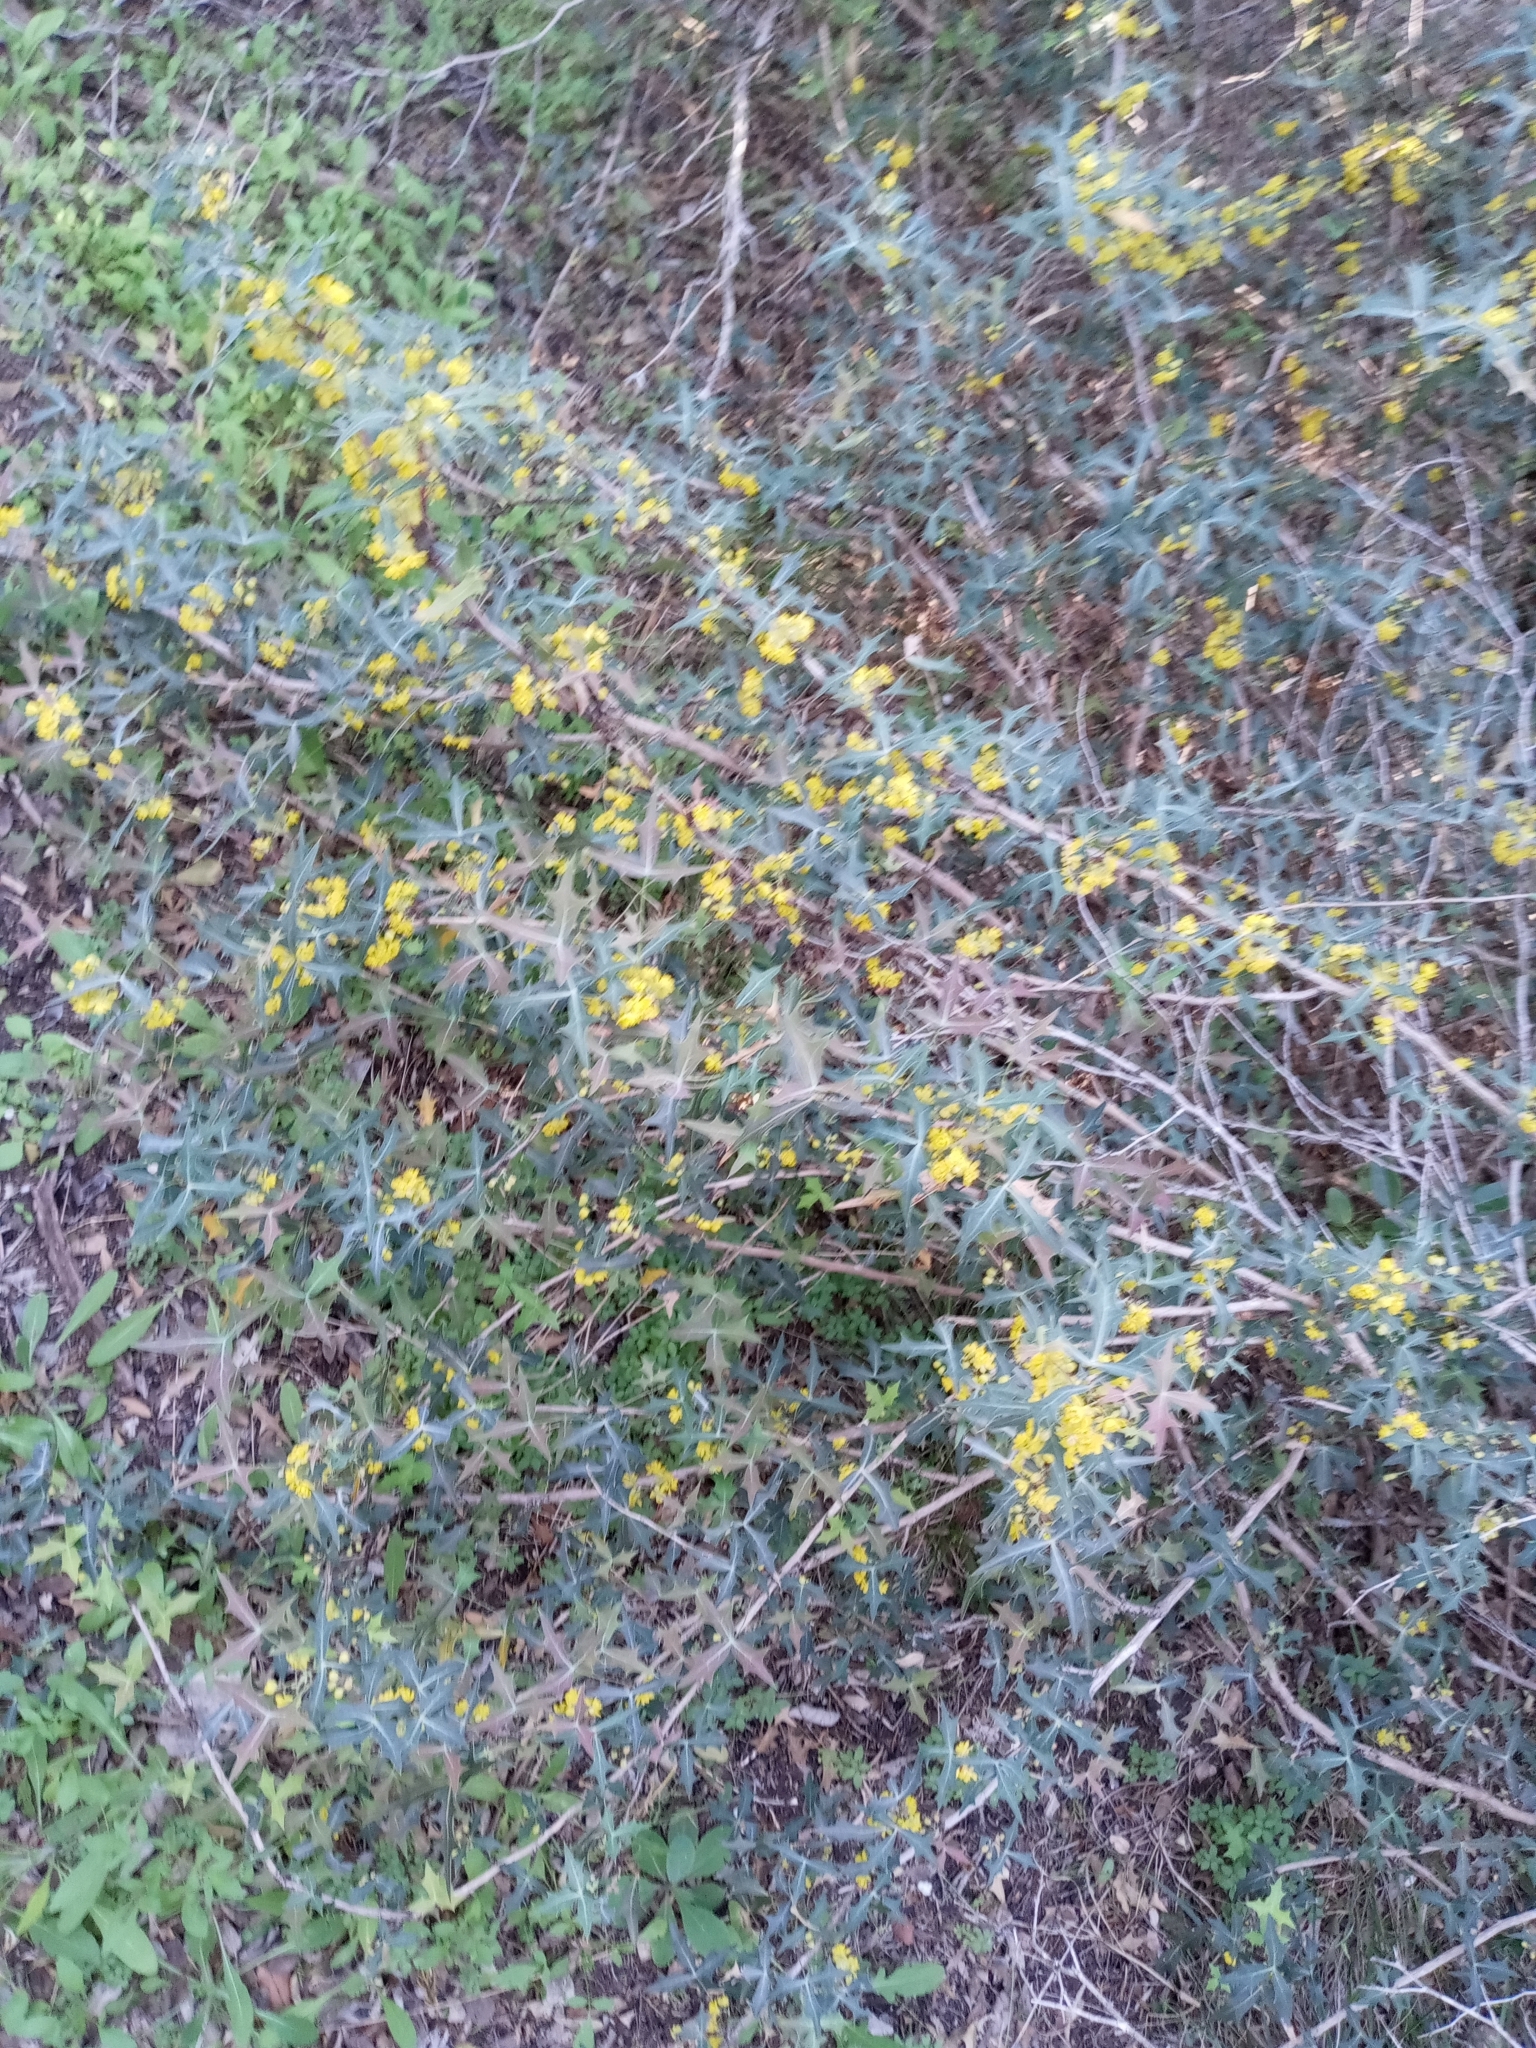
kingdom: Plantae
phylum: Tracheophyta
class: Magnoliopsida
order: Ranunculales
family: Berberidaceae
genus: Alloberberis
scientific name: Alloberberis trifoliolata
